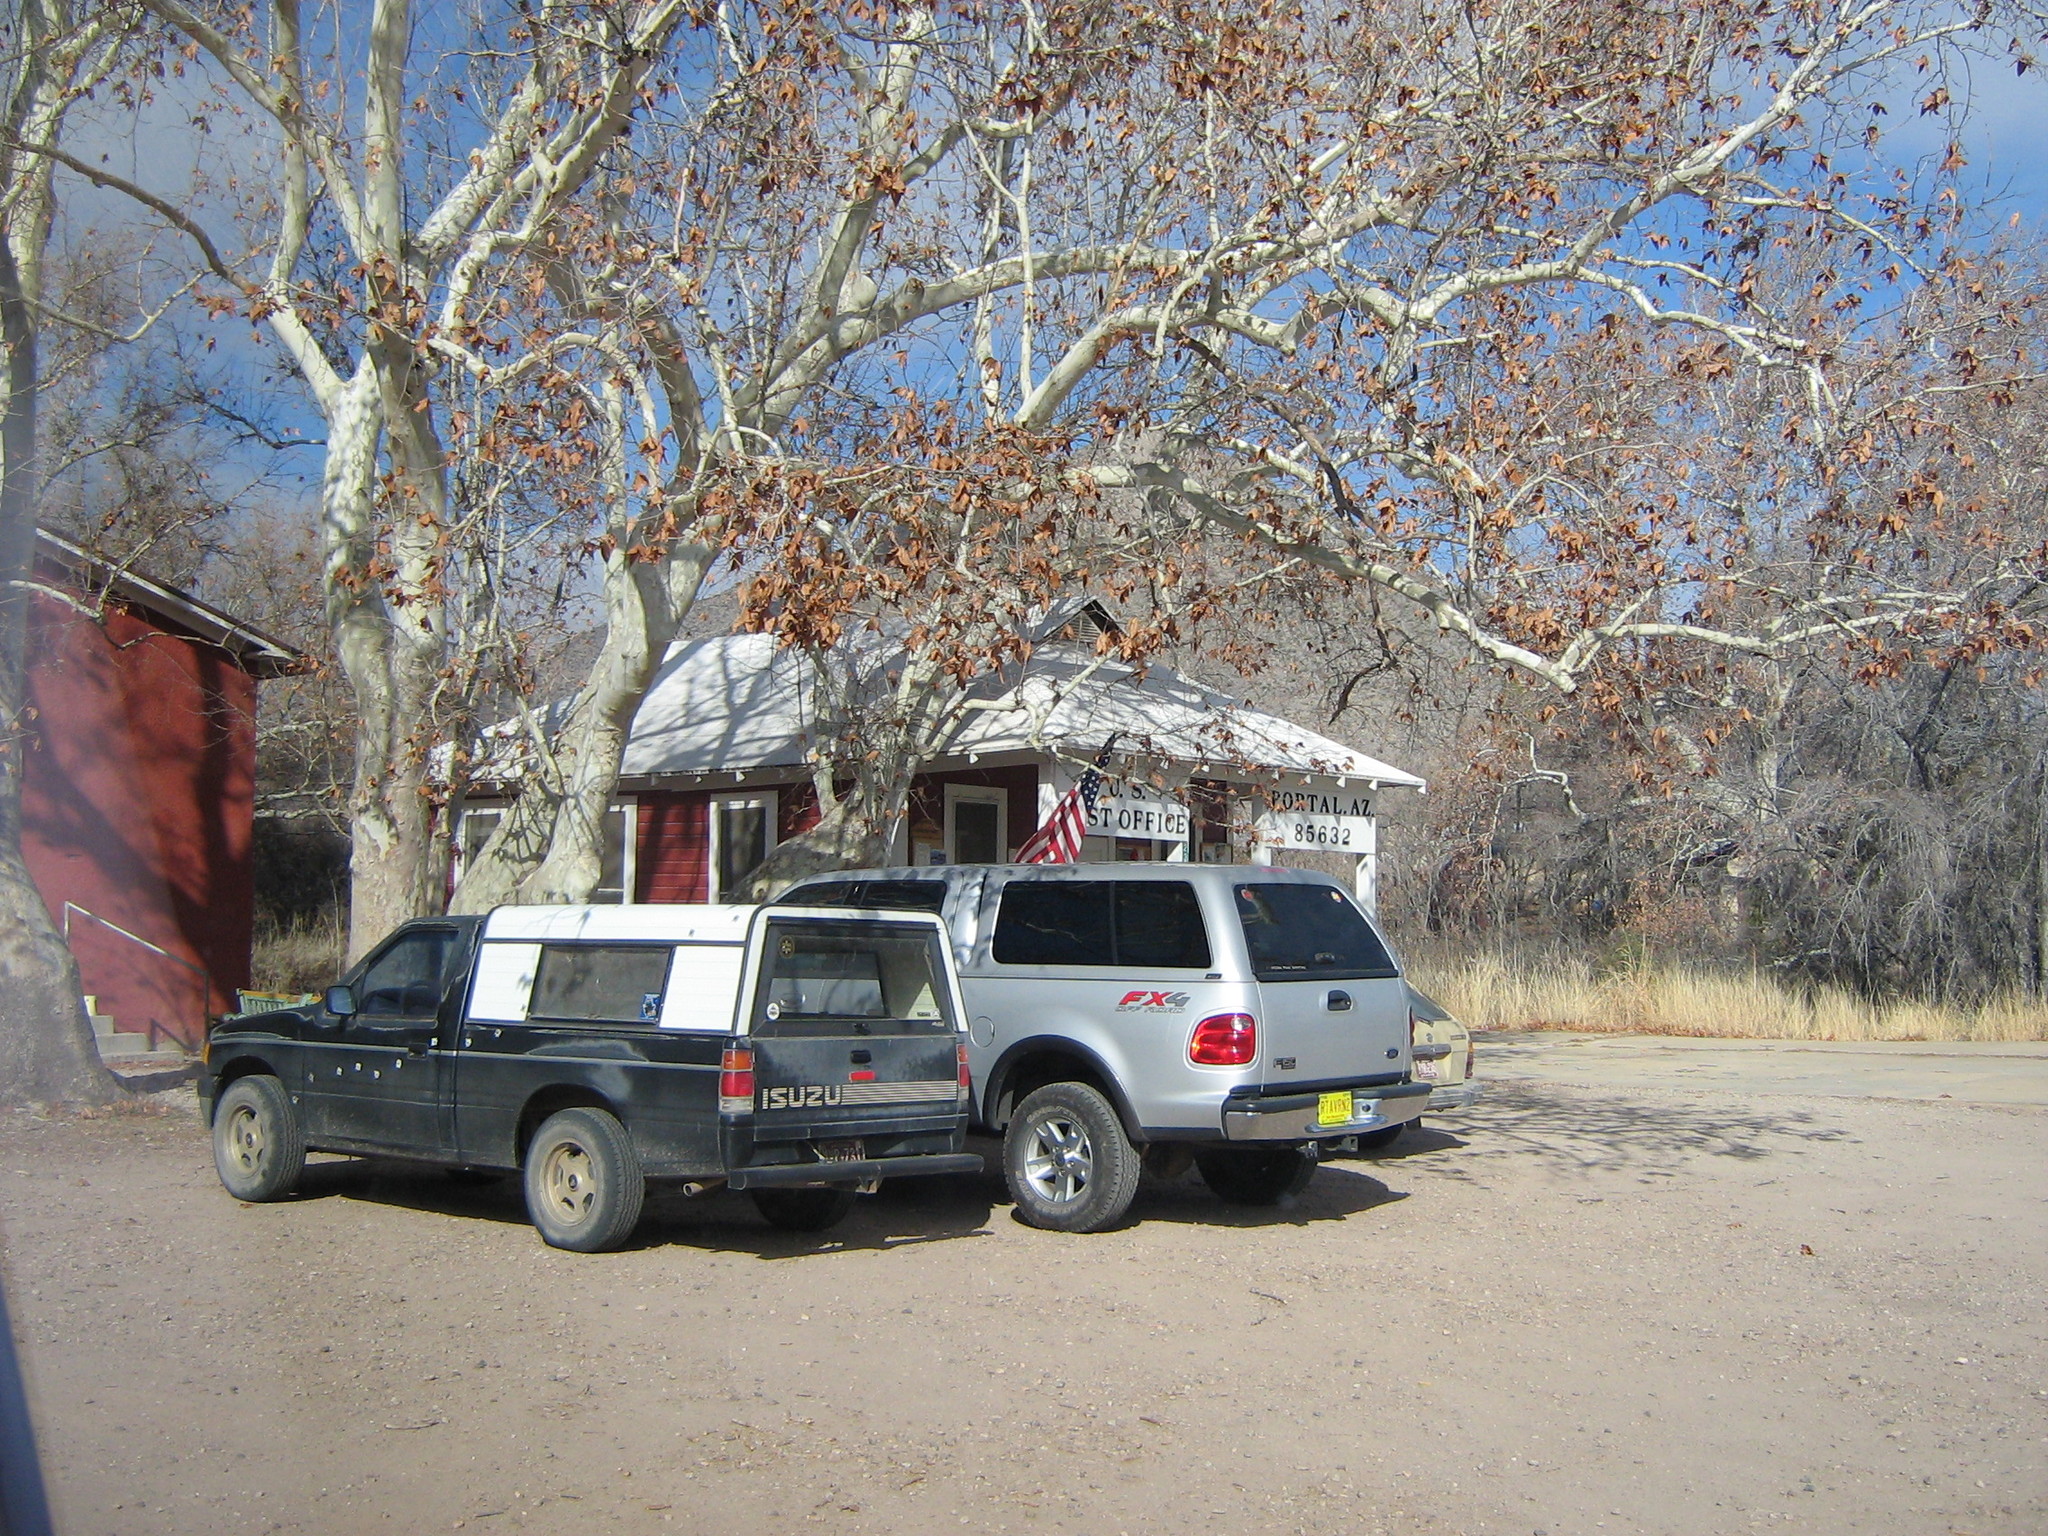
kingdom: Plantae
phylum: Tracheophyta
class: Magnoliopsida
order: Proteales
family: Platanaceae
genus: Platanus
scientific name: Platanus wrightii
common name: Arizona sycamore
